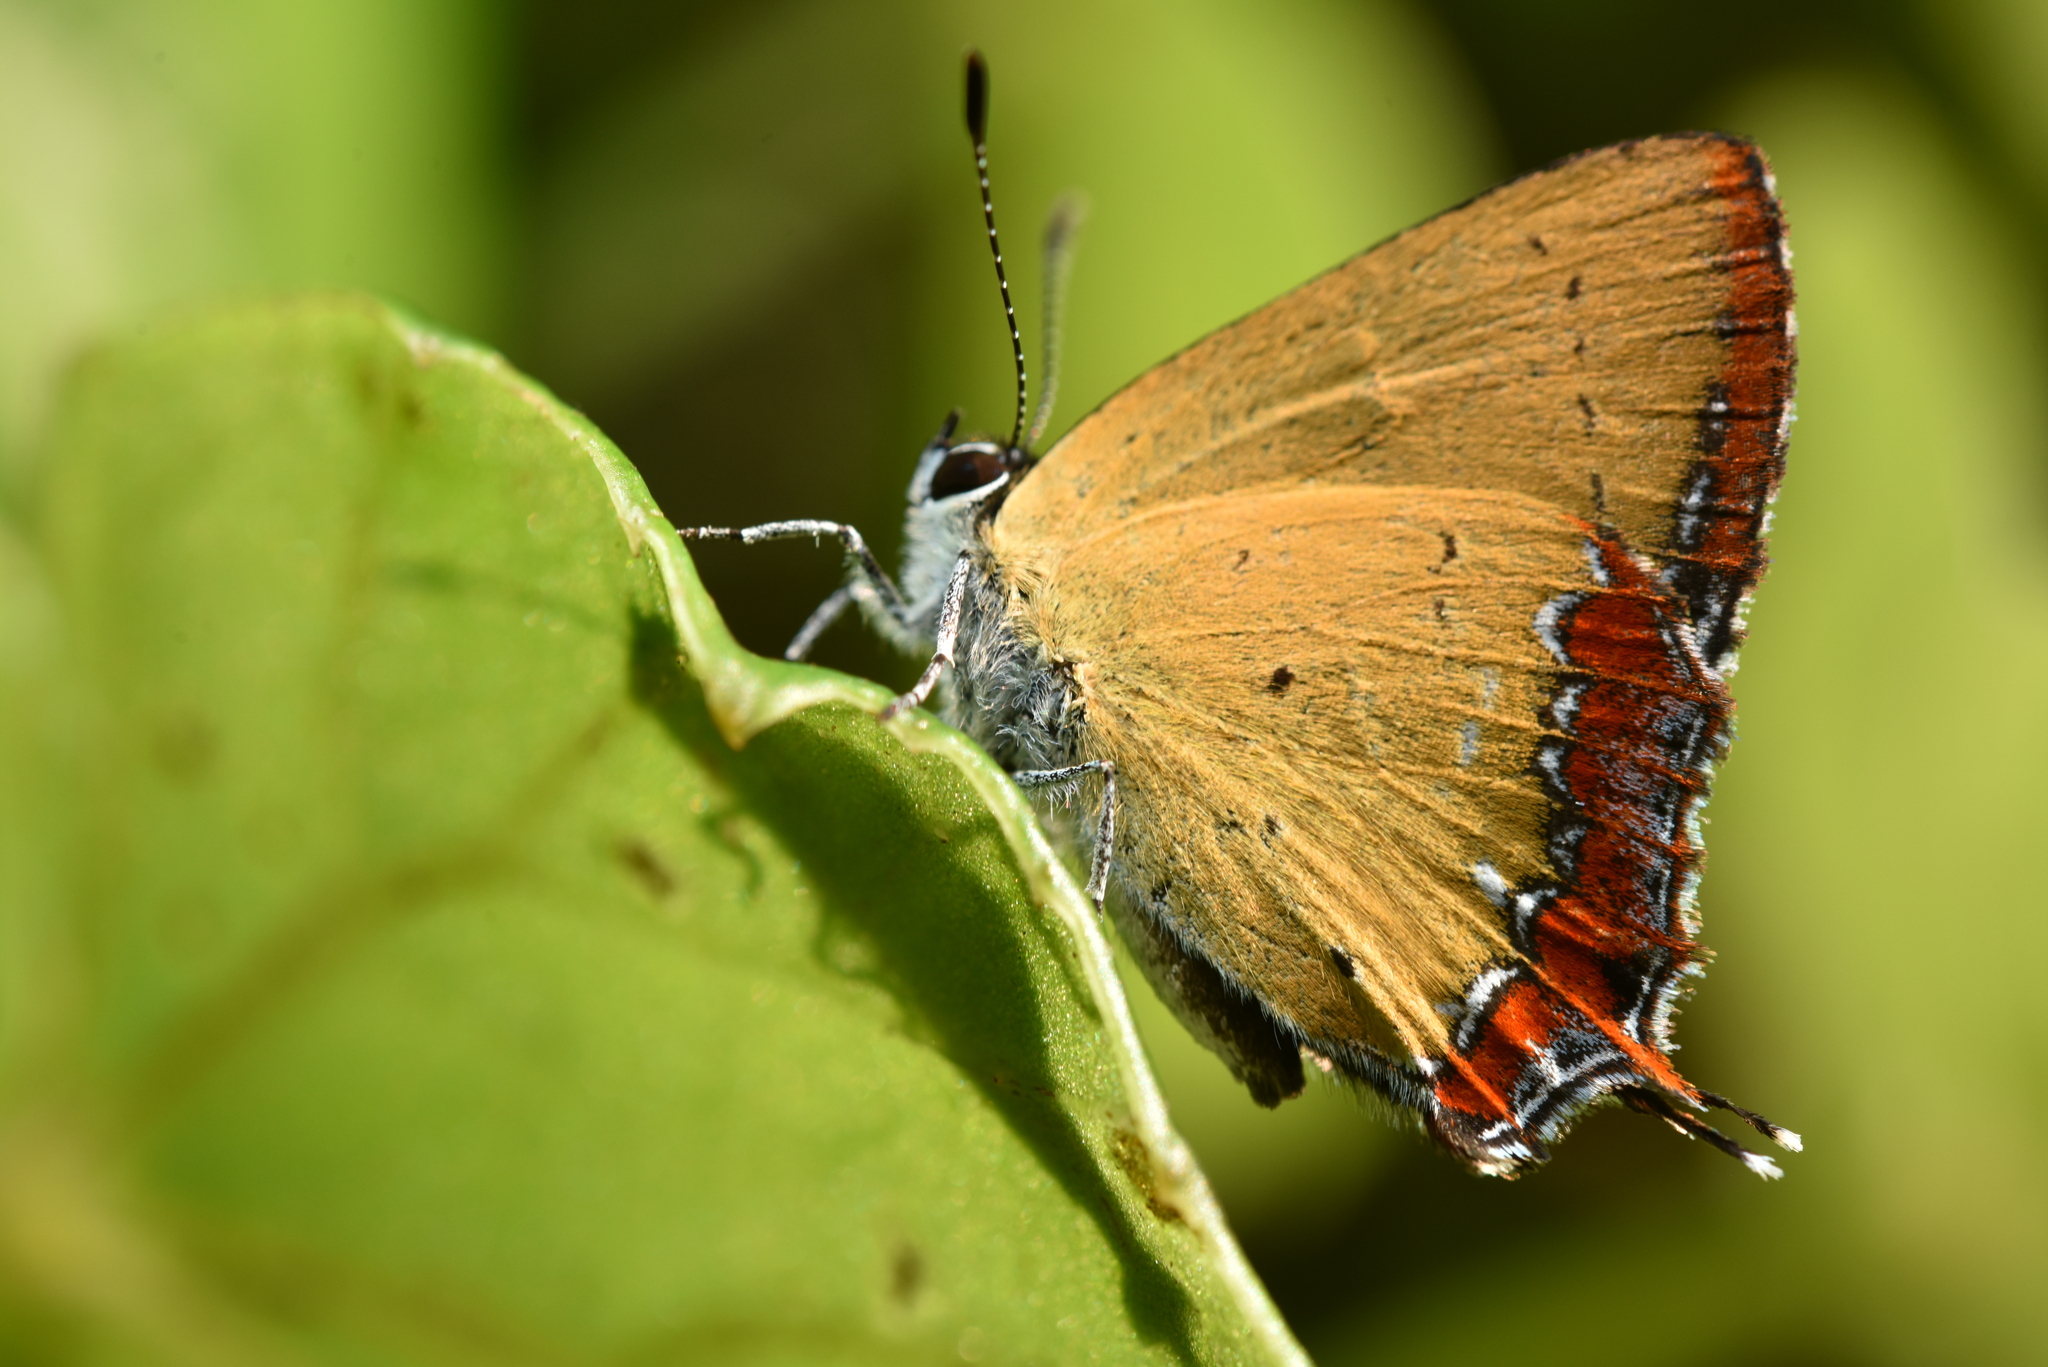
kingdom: Animalia
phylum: Arthropoda
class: Insecta
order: Lepidoptera
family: Lycaenidae
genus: Heliophorus
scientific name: Heliophorus ila
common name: Restricted purple sapphire
